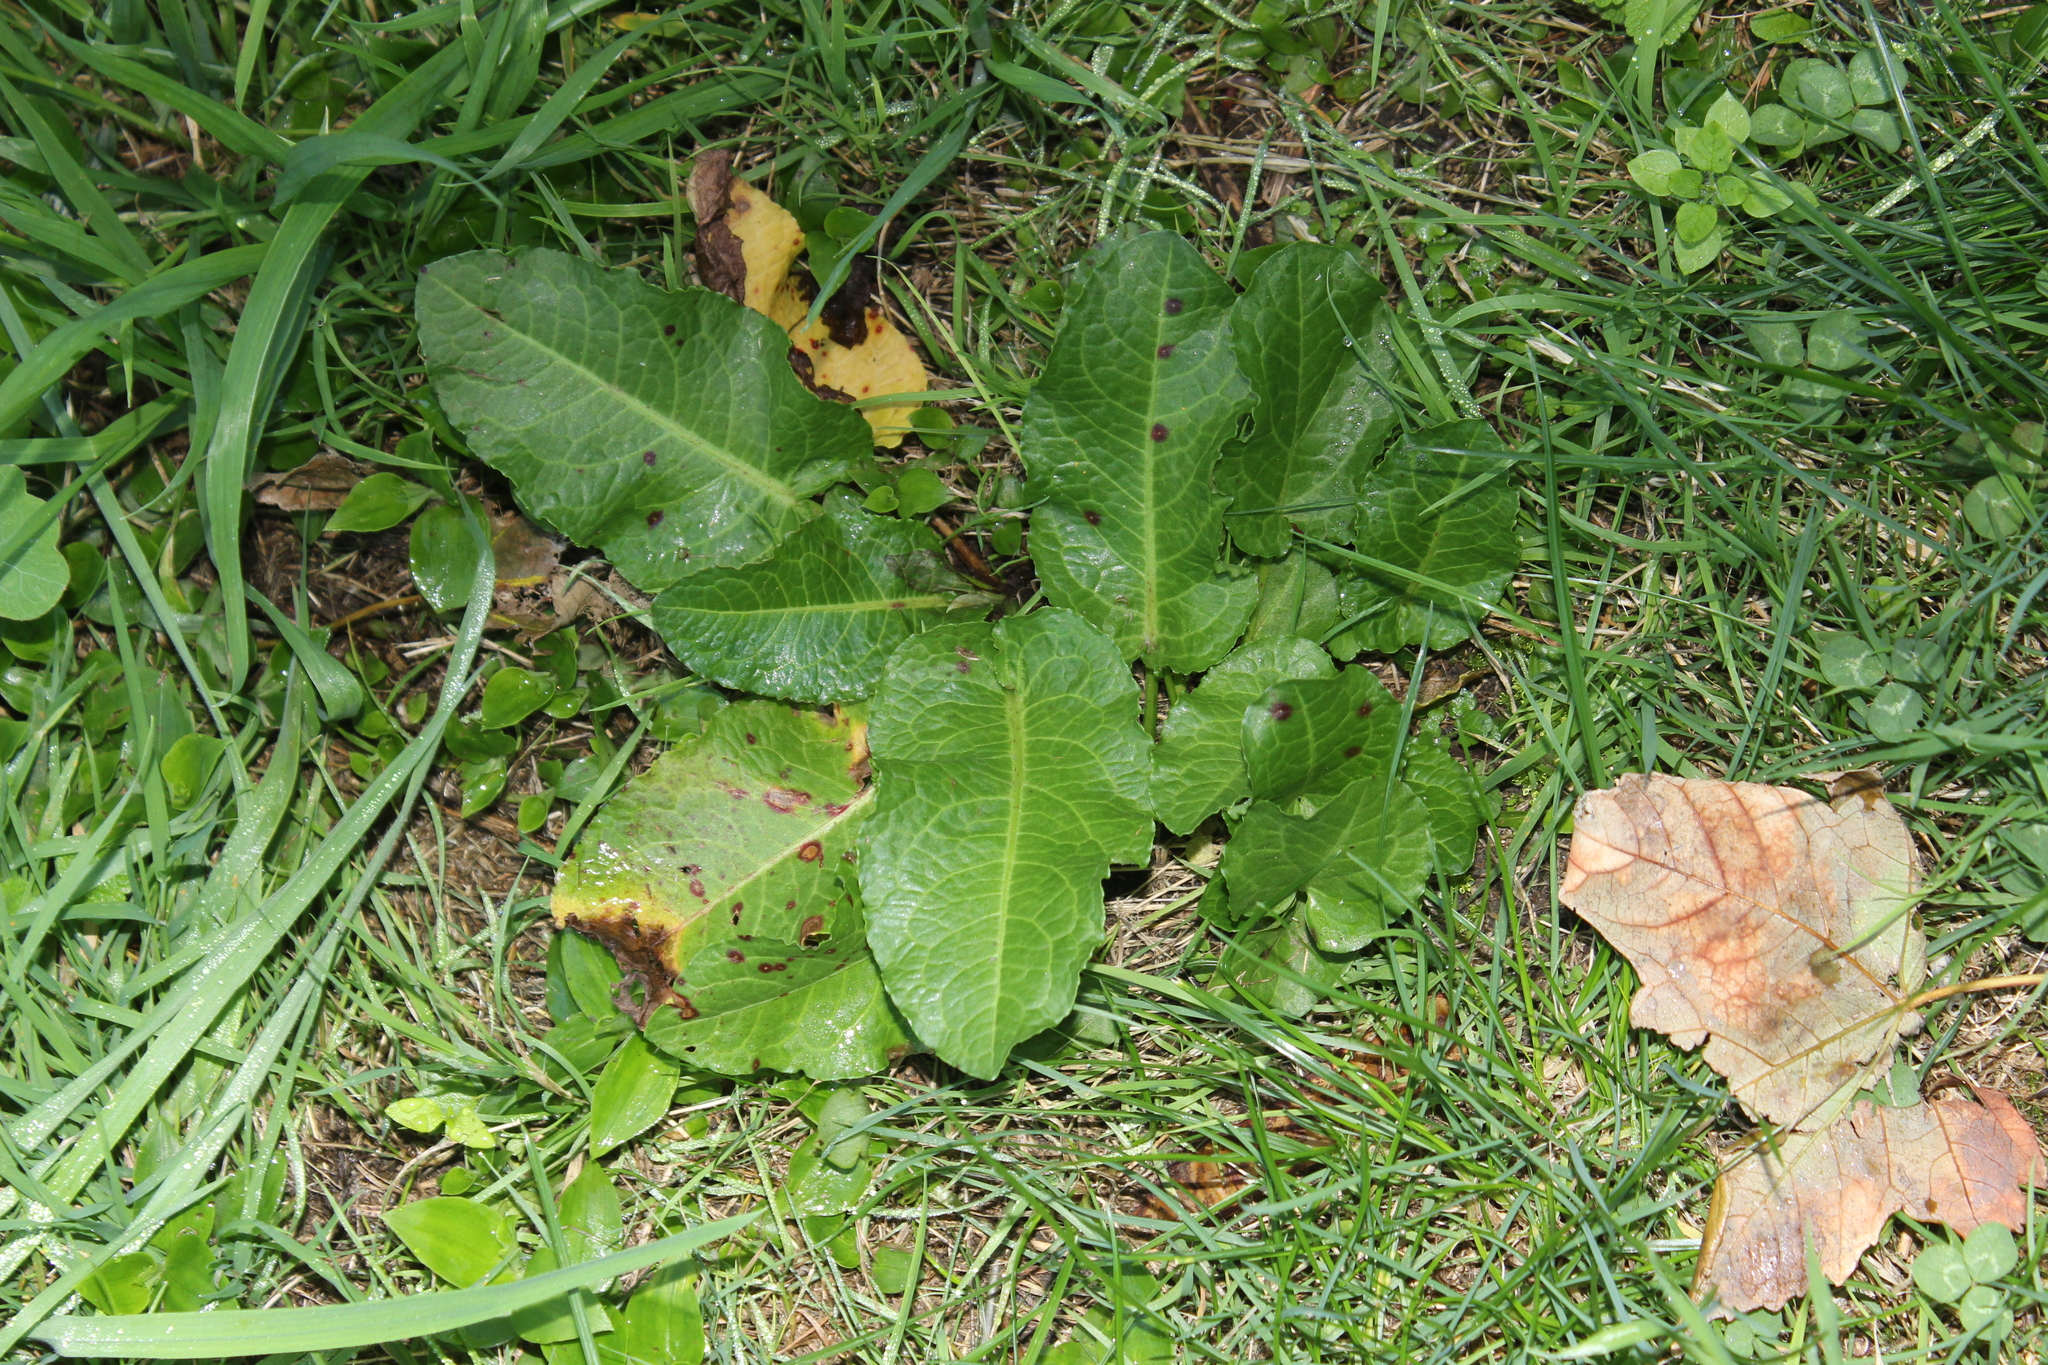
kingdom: Plantae
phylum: Tracheophyta
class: Magnoliopsida
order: Caryophyllales
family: Polygonaceae
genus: Rumex
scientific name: Rumex obtusifolius
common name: Bitter dock
